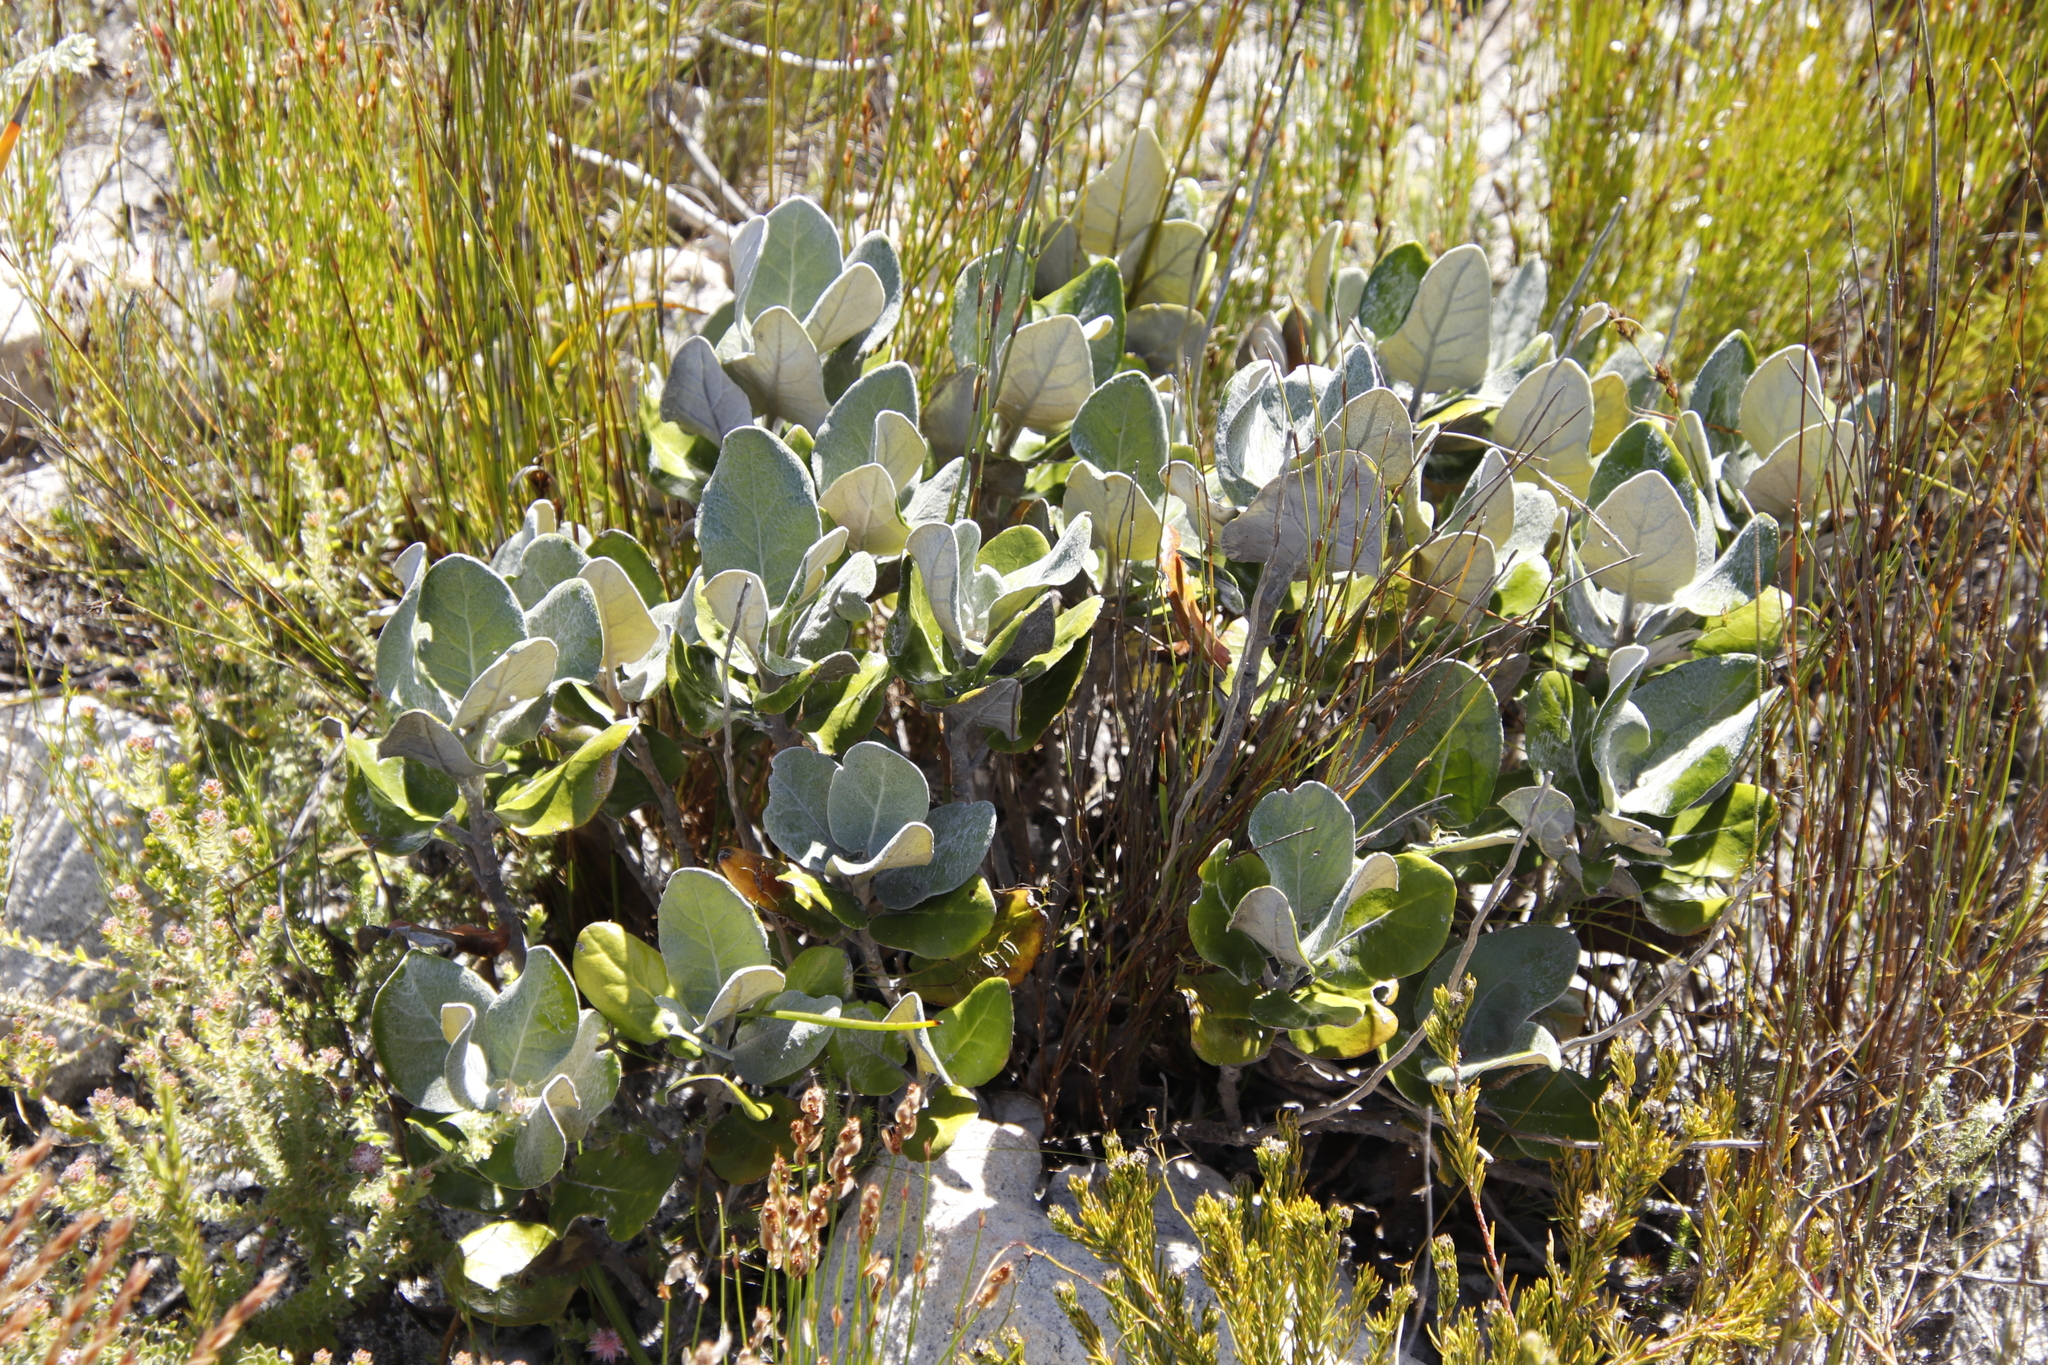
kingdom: Plantae
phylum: Tracheophyta
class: Magnoliopsida
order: Asterales
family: Asteraceae
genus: Capelio
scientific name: Capelio tabularis
